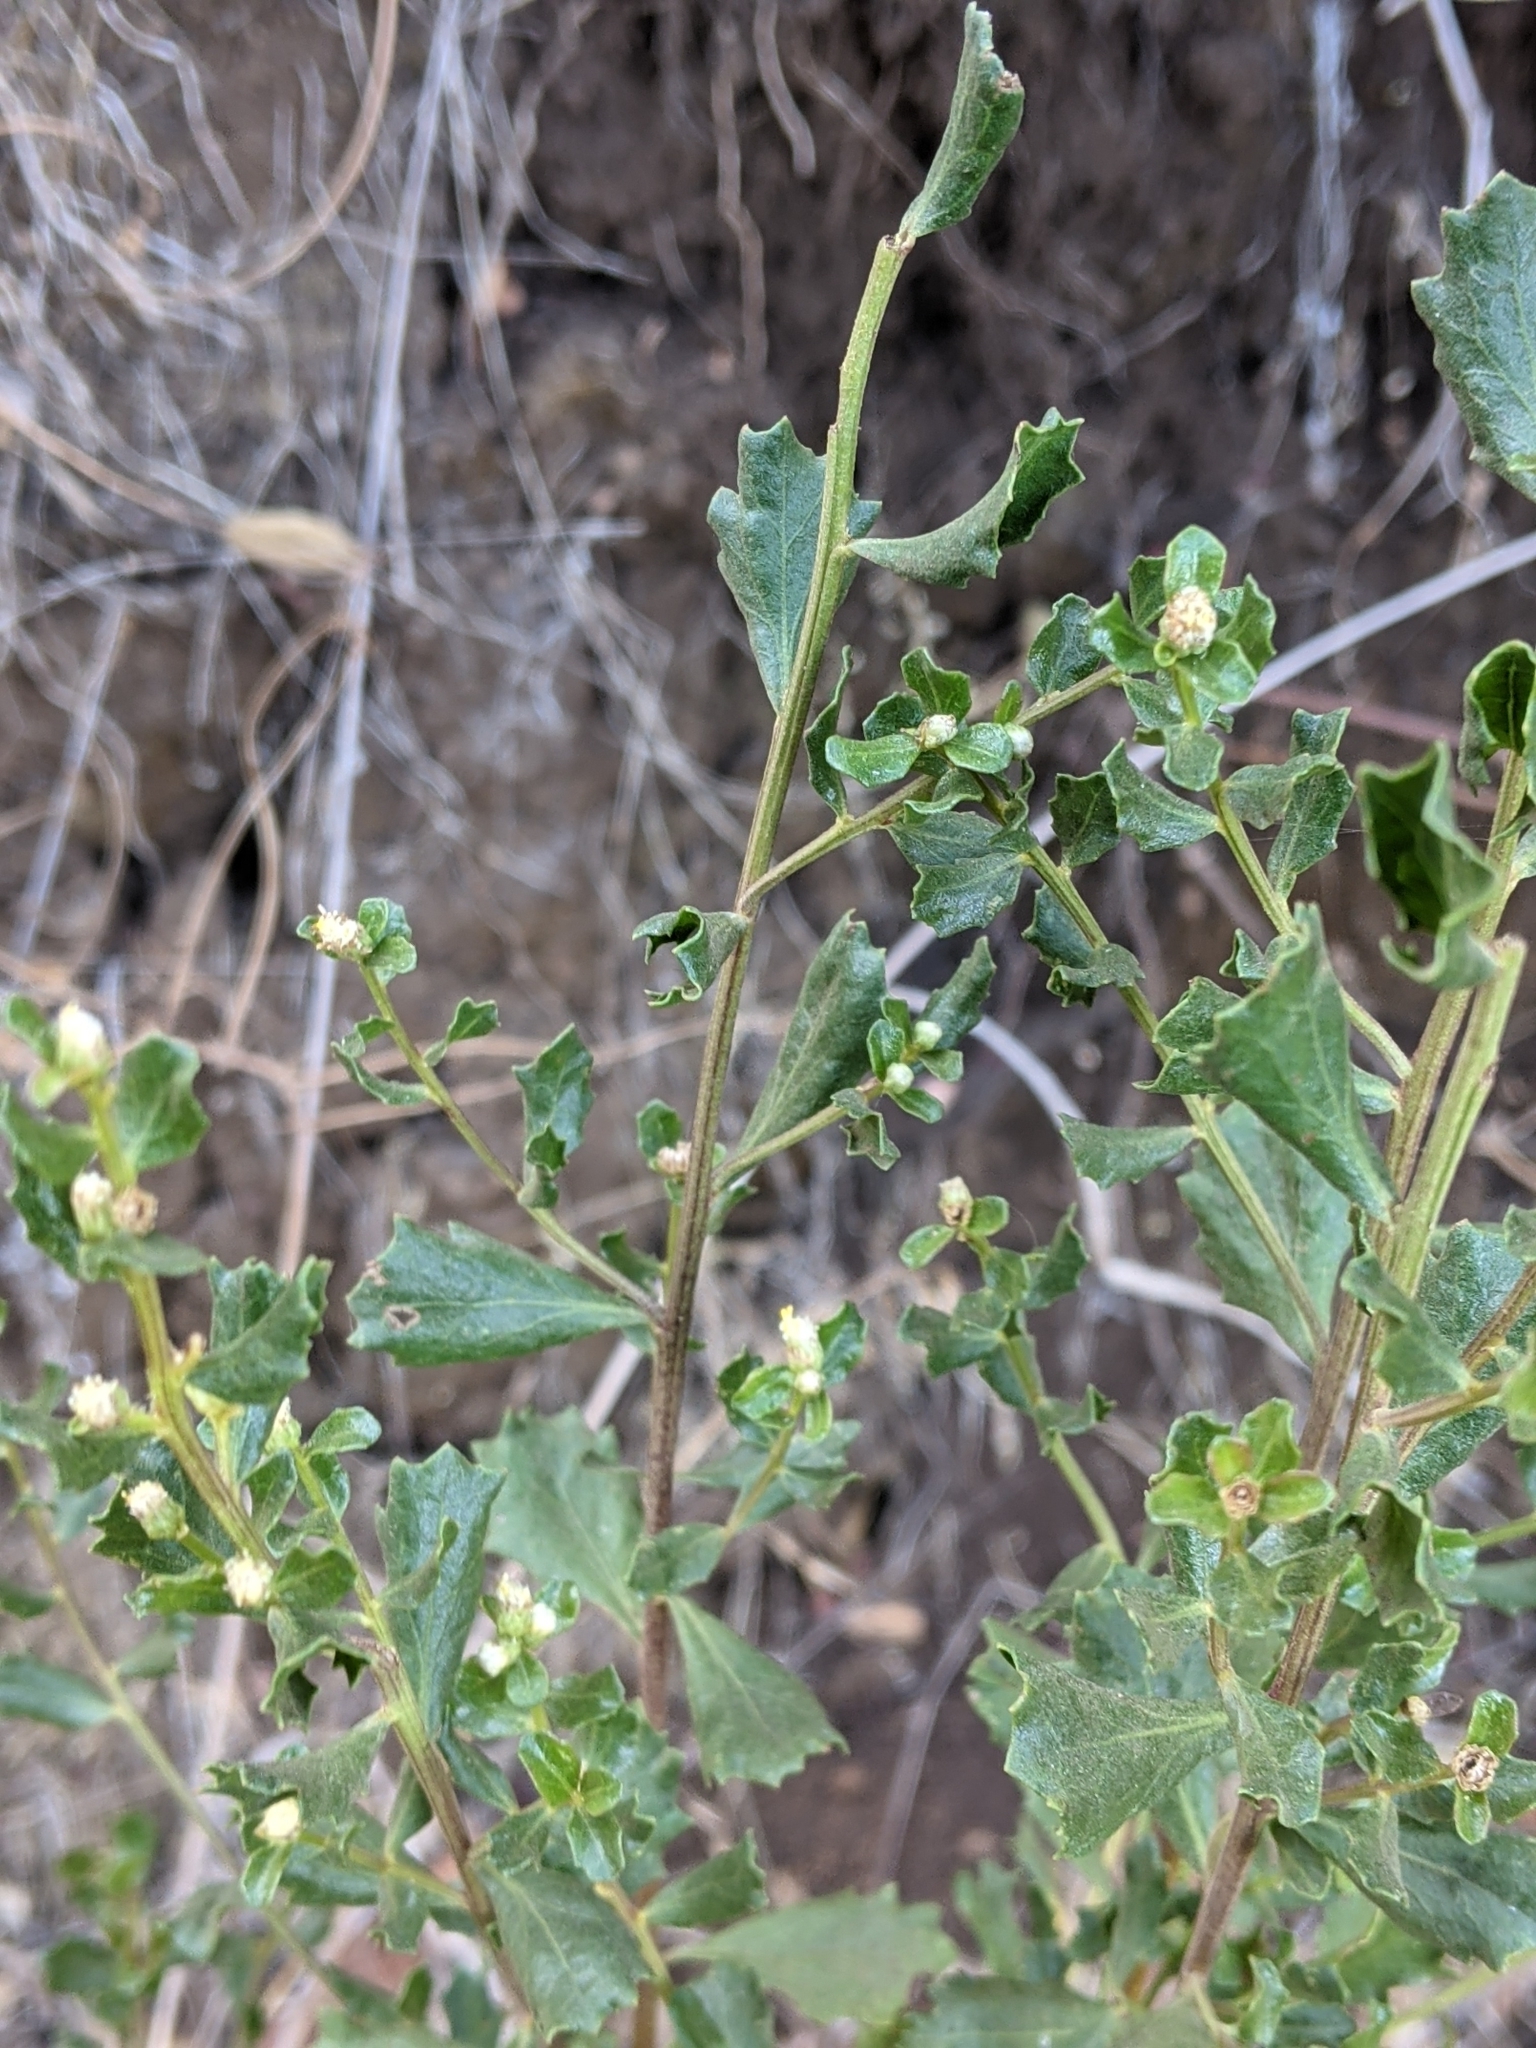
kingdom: Plantae
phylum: Tracheophyta
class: Magnoliopsida
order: Asterales
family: Asteraceae
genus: Baccharis
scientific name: Baccharis pilularis
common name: Coyotebrush
